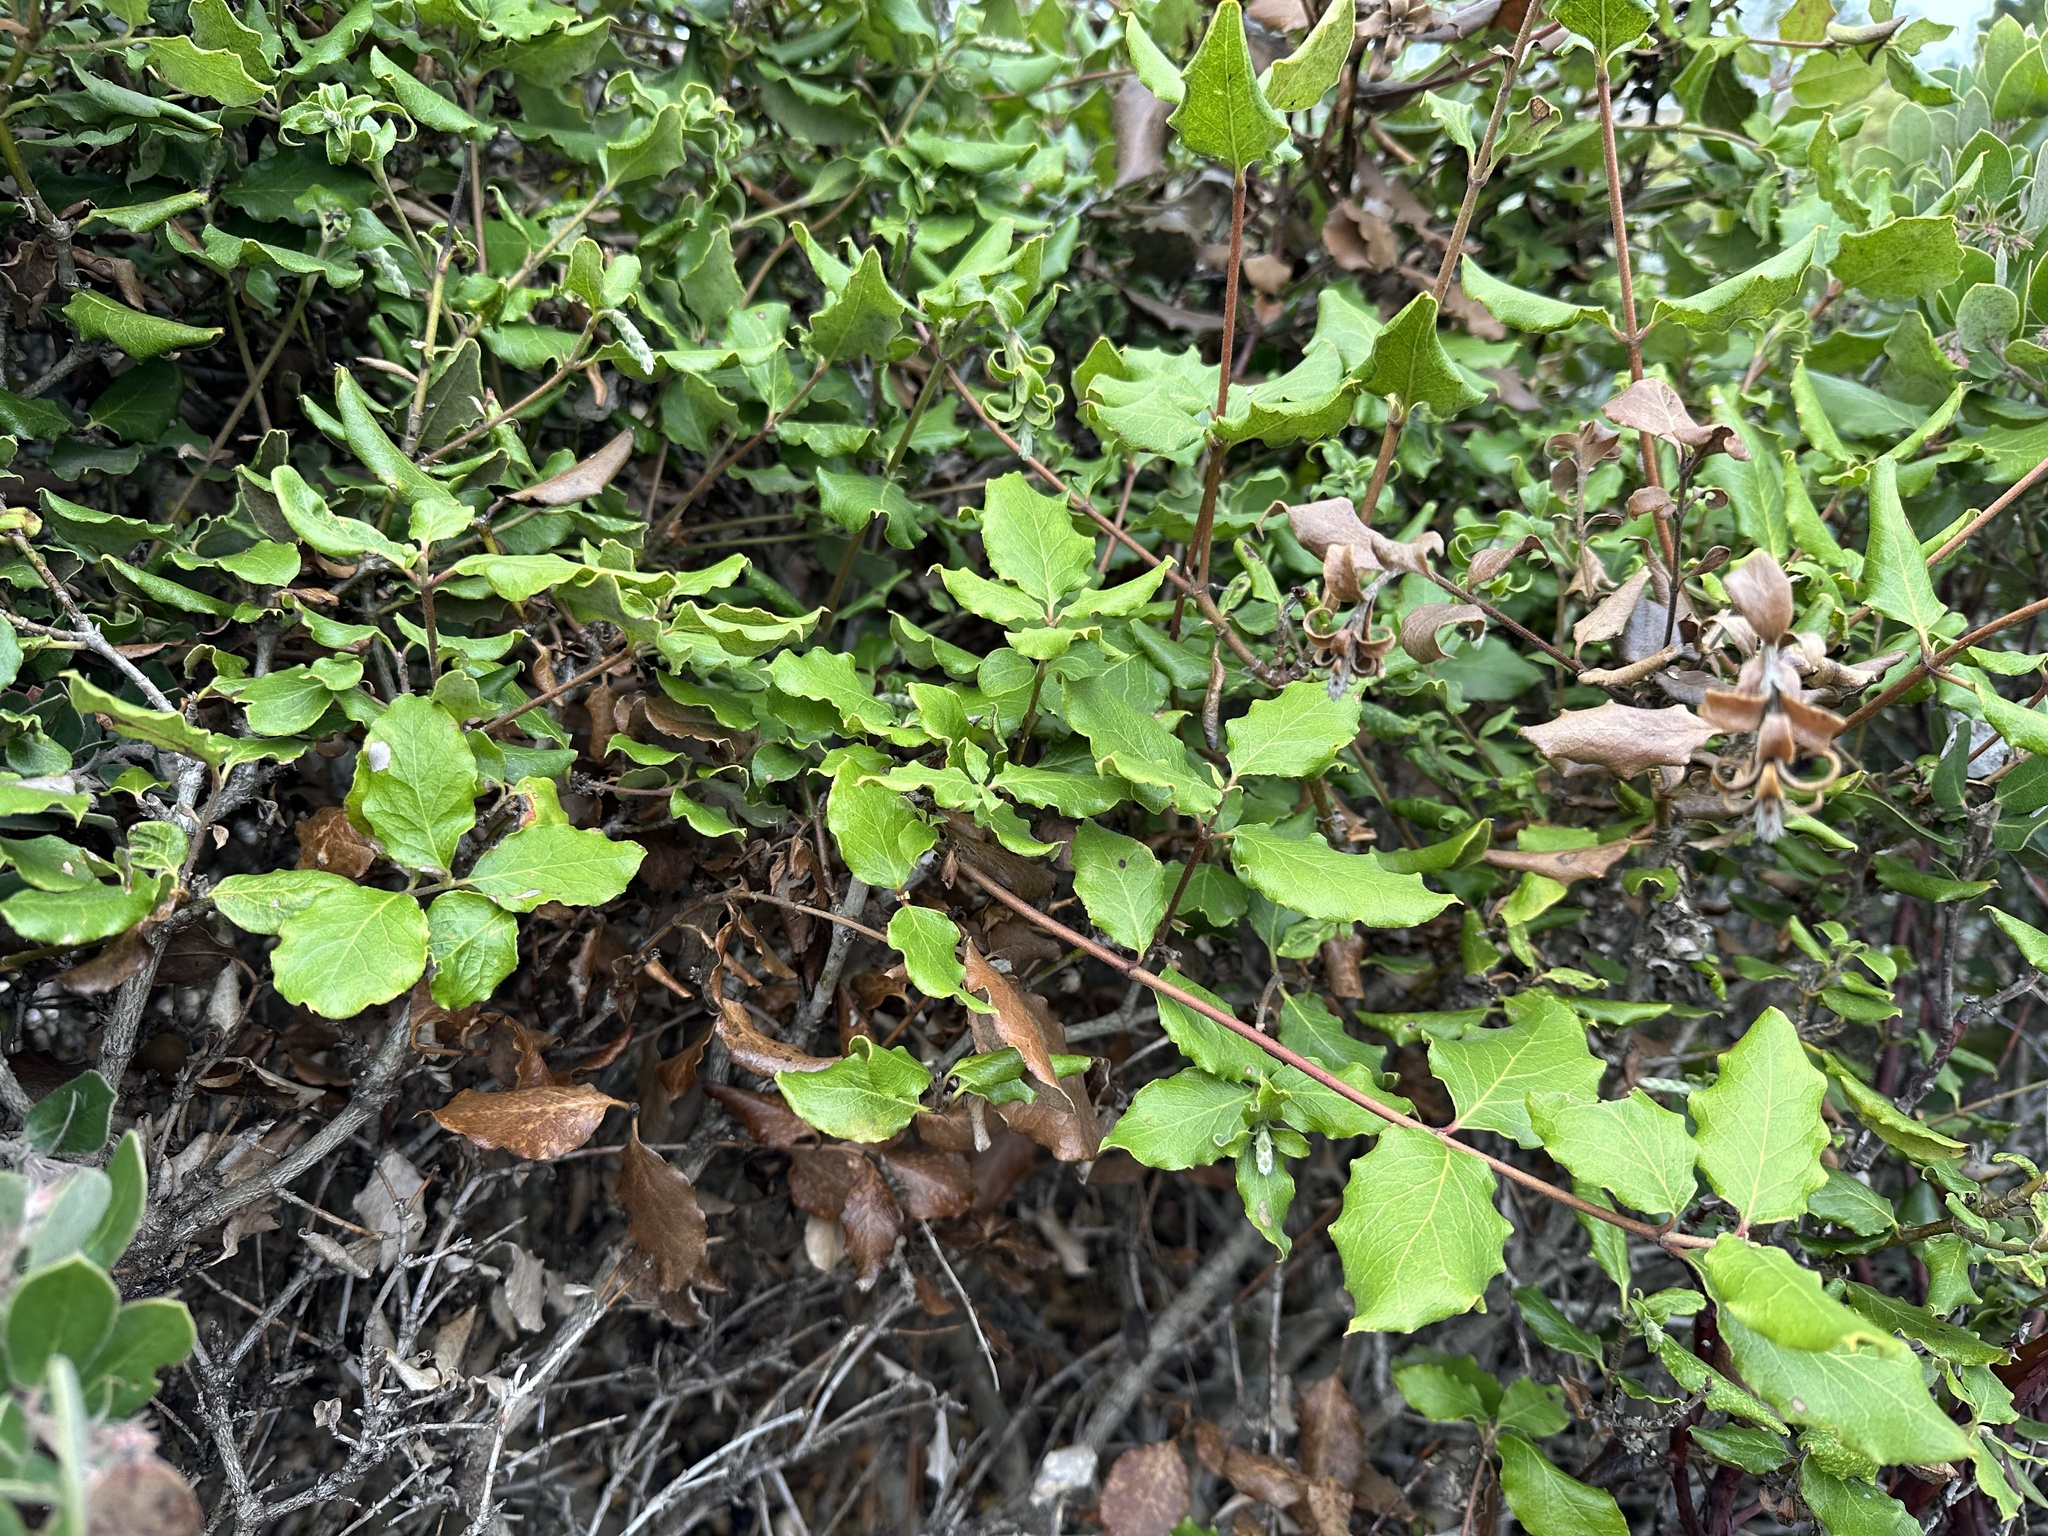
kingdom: Plantae
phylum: Tracheophyta
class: Magnoliopsida
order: Garryales
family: Garryaceae
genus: Garrya
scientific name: Garrya elliptica
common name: Silk-tassel
